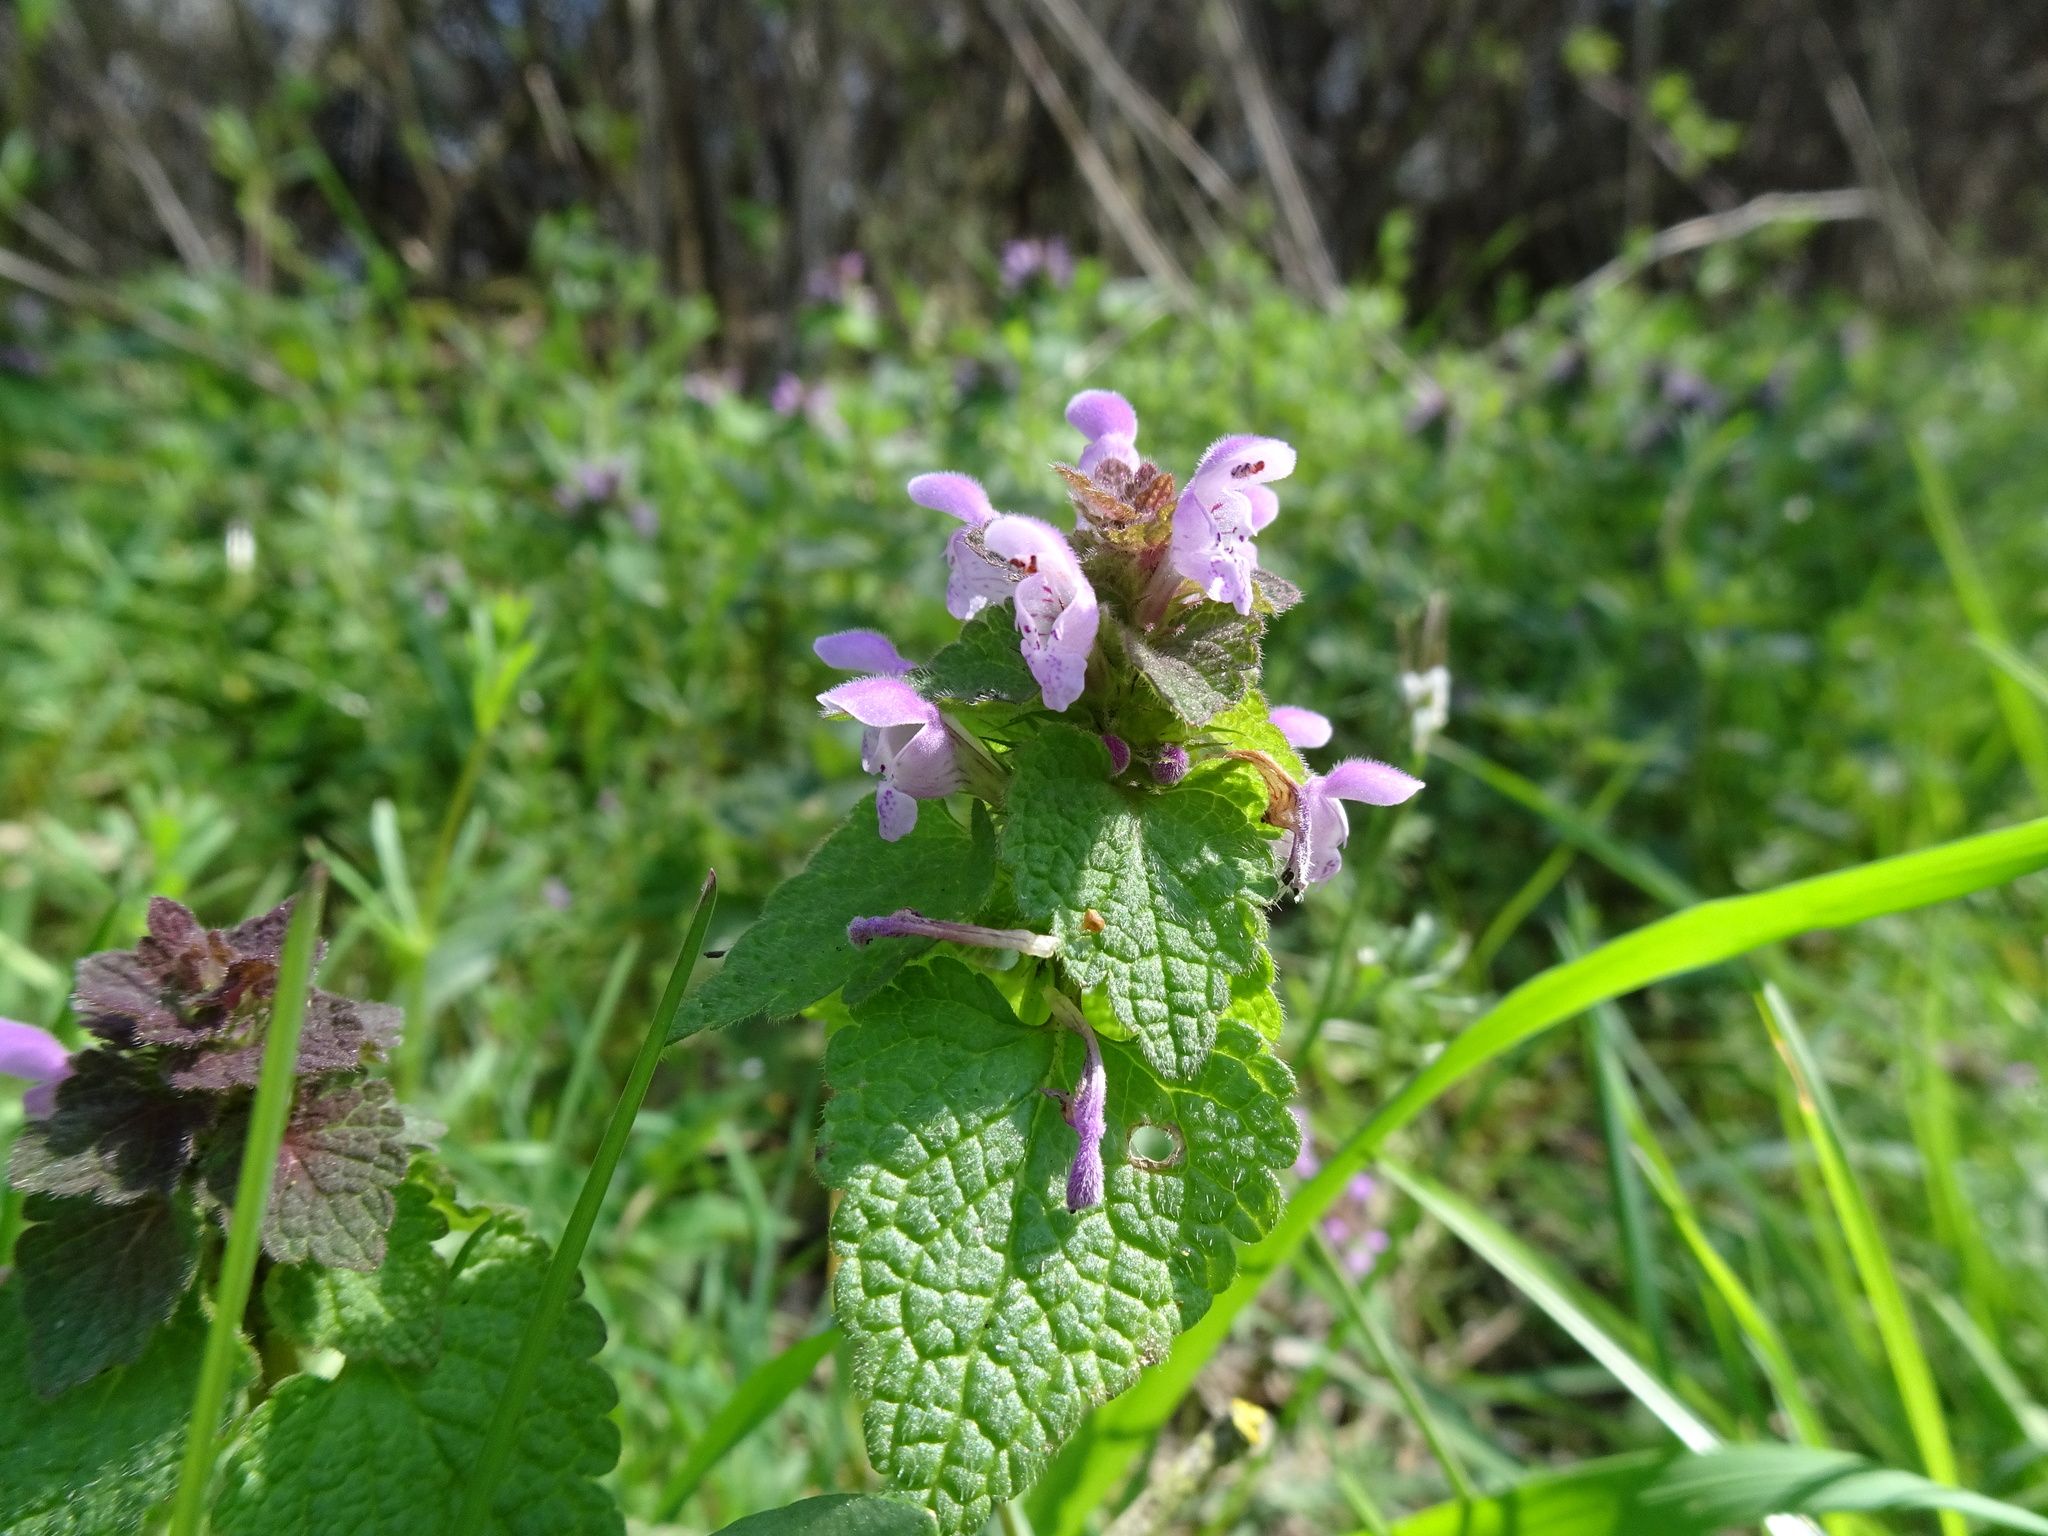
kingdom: Plantae
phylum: Tracheophyta
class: Magnoliopsida
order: Lamiales
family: Lamiaceae
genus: Lamium
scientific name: Lamium purpureum
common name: Red dead-nettle
